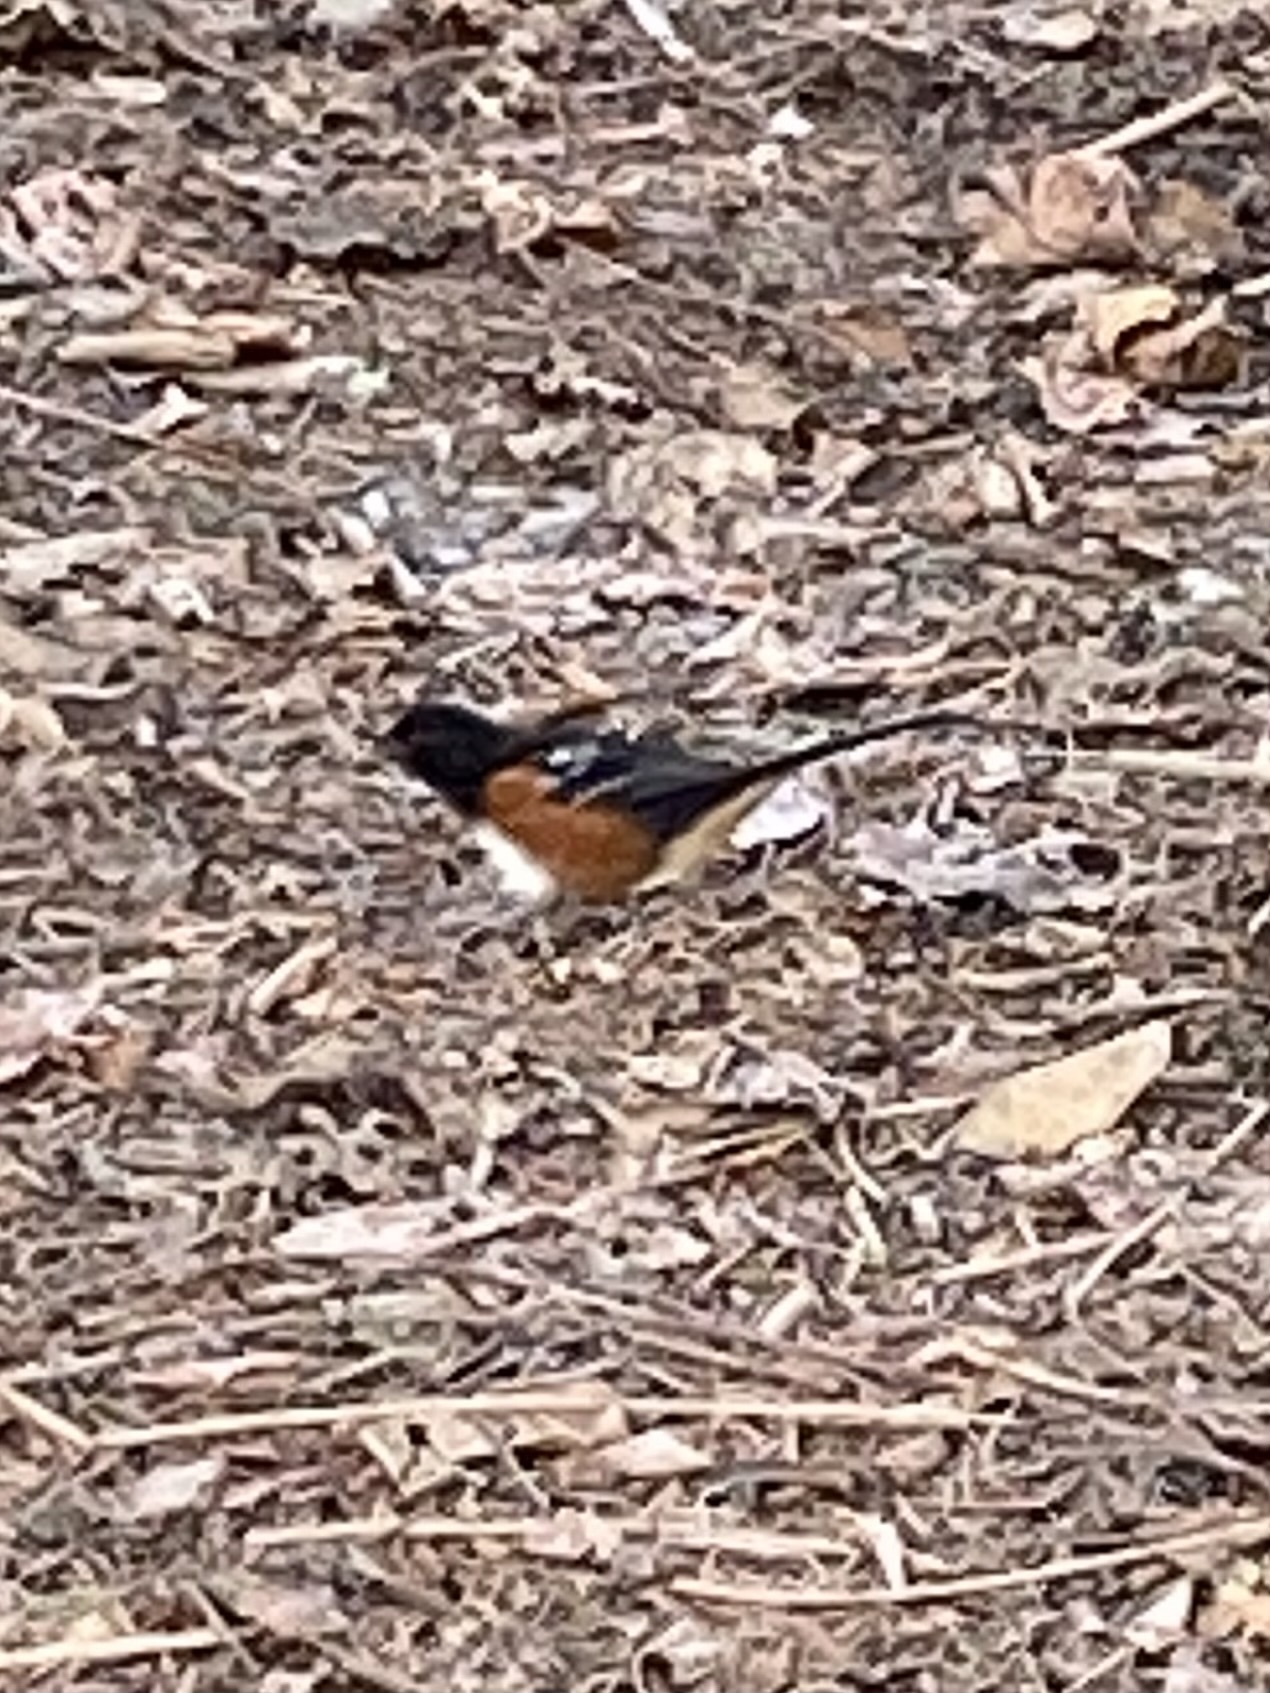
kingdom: Animalia
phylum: Chordata
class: Aves
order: Passeriformes
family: Passerellidae
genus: Pipilo
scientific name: Pipilo maculatus
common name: Spotted towhee
